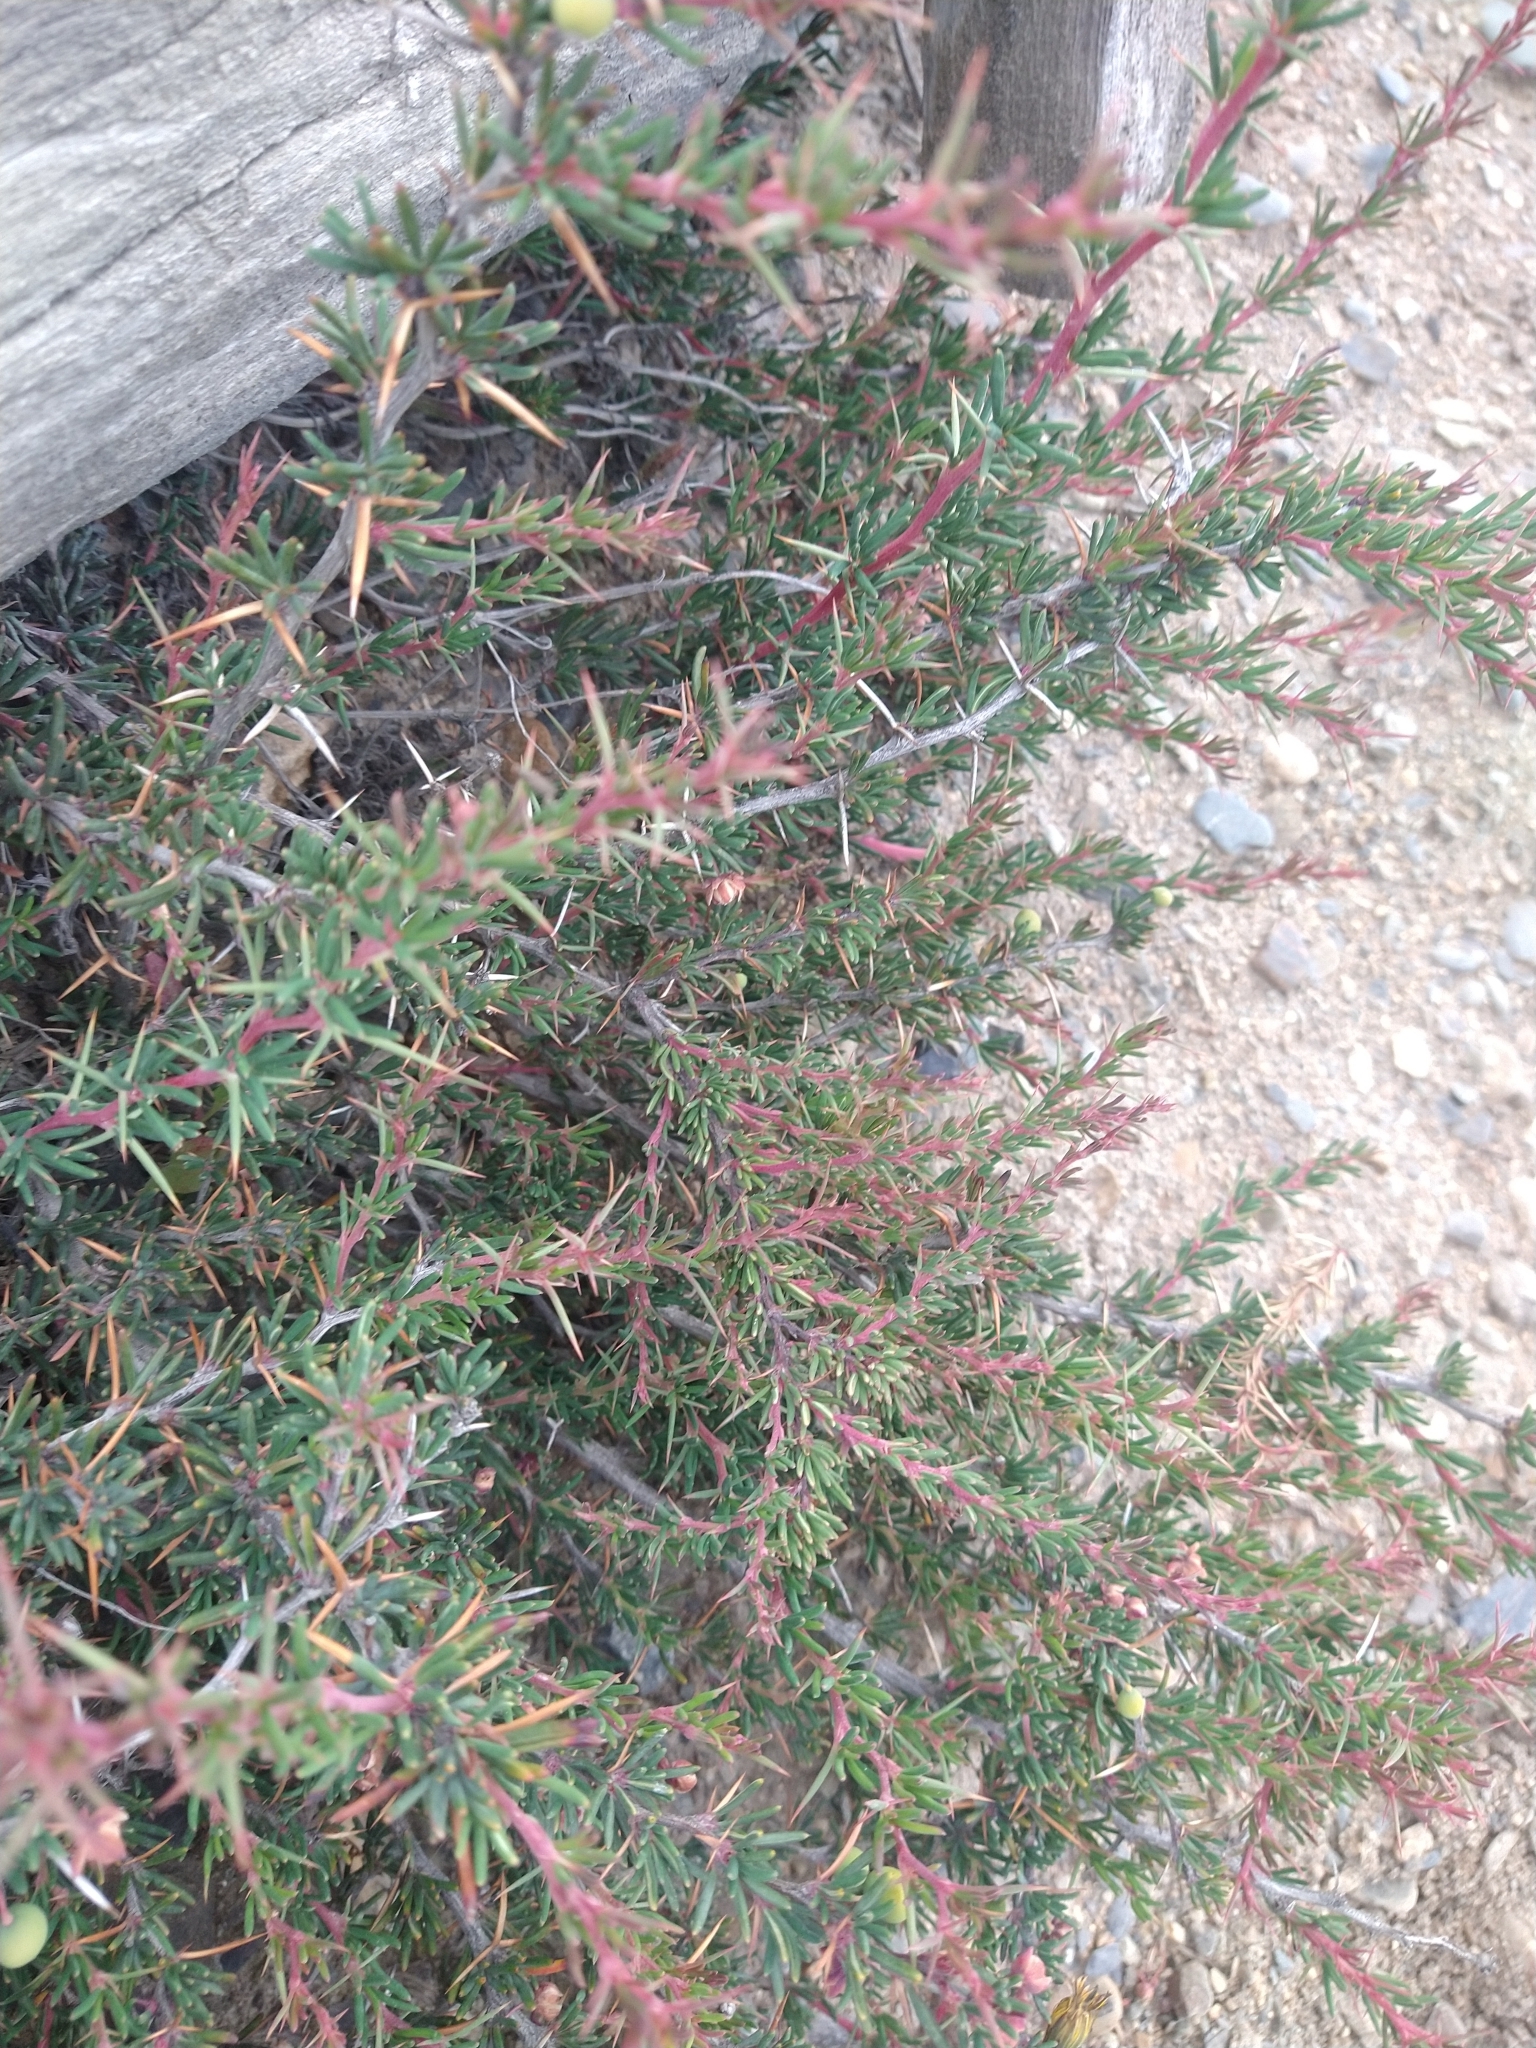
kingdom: Plantae
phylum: Tracheophyta
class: Magnoliopsida
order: Ranunculales
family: Berberidaceae
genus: Berberis
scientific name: Berberis empetrifolia
